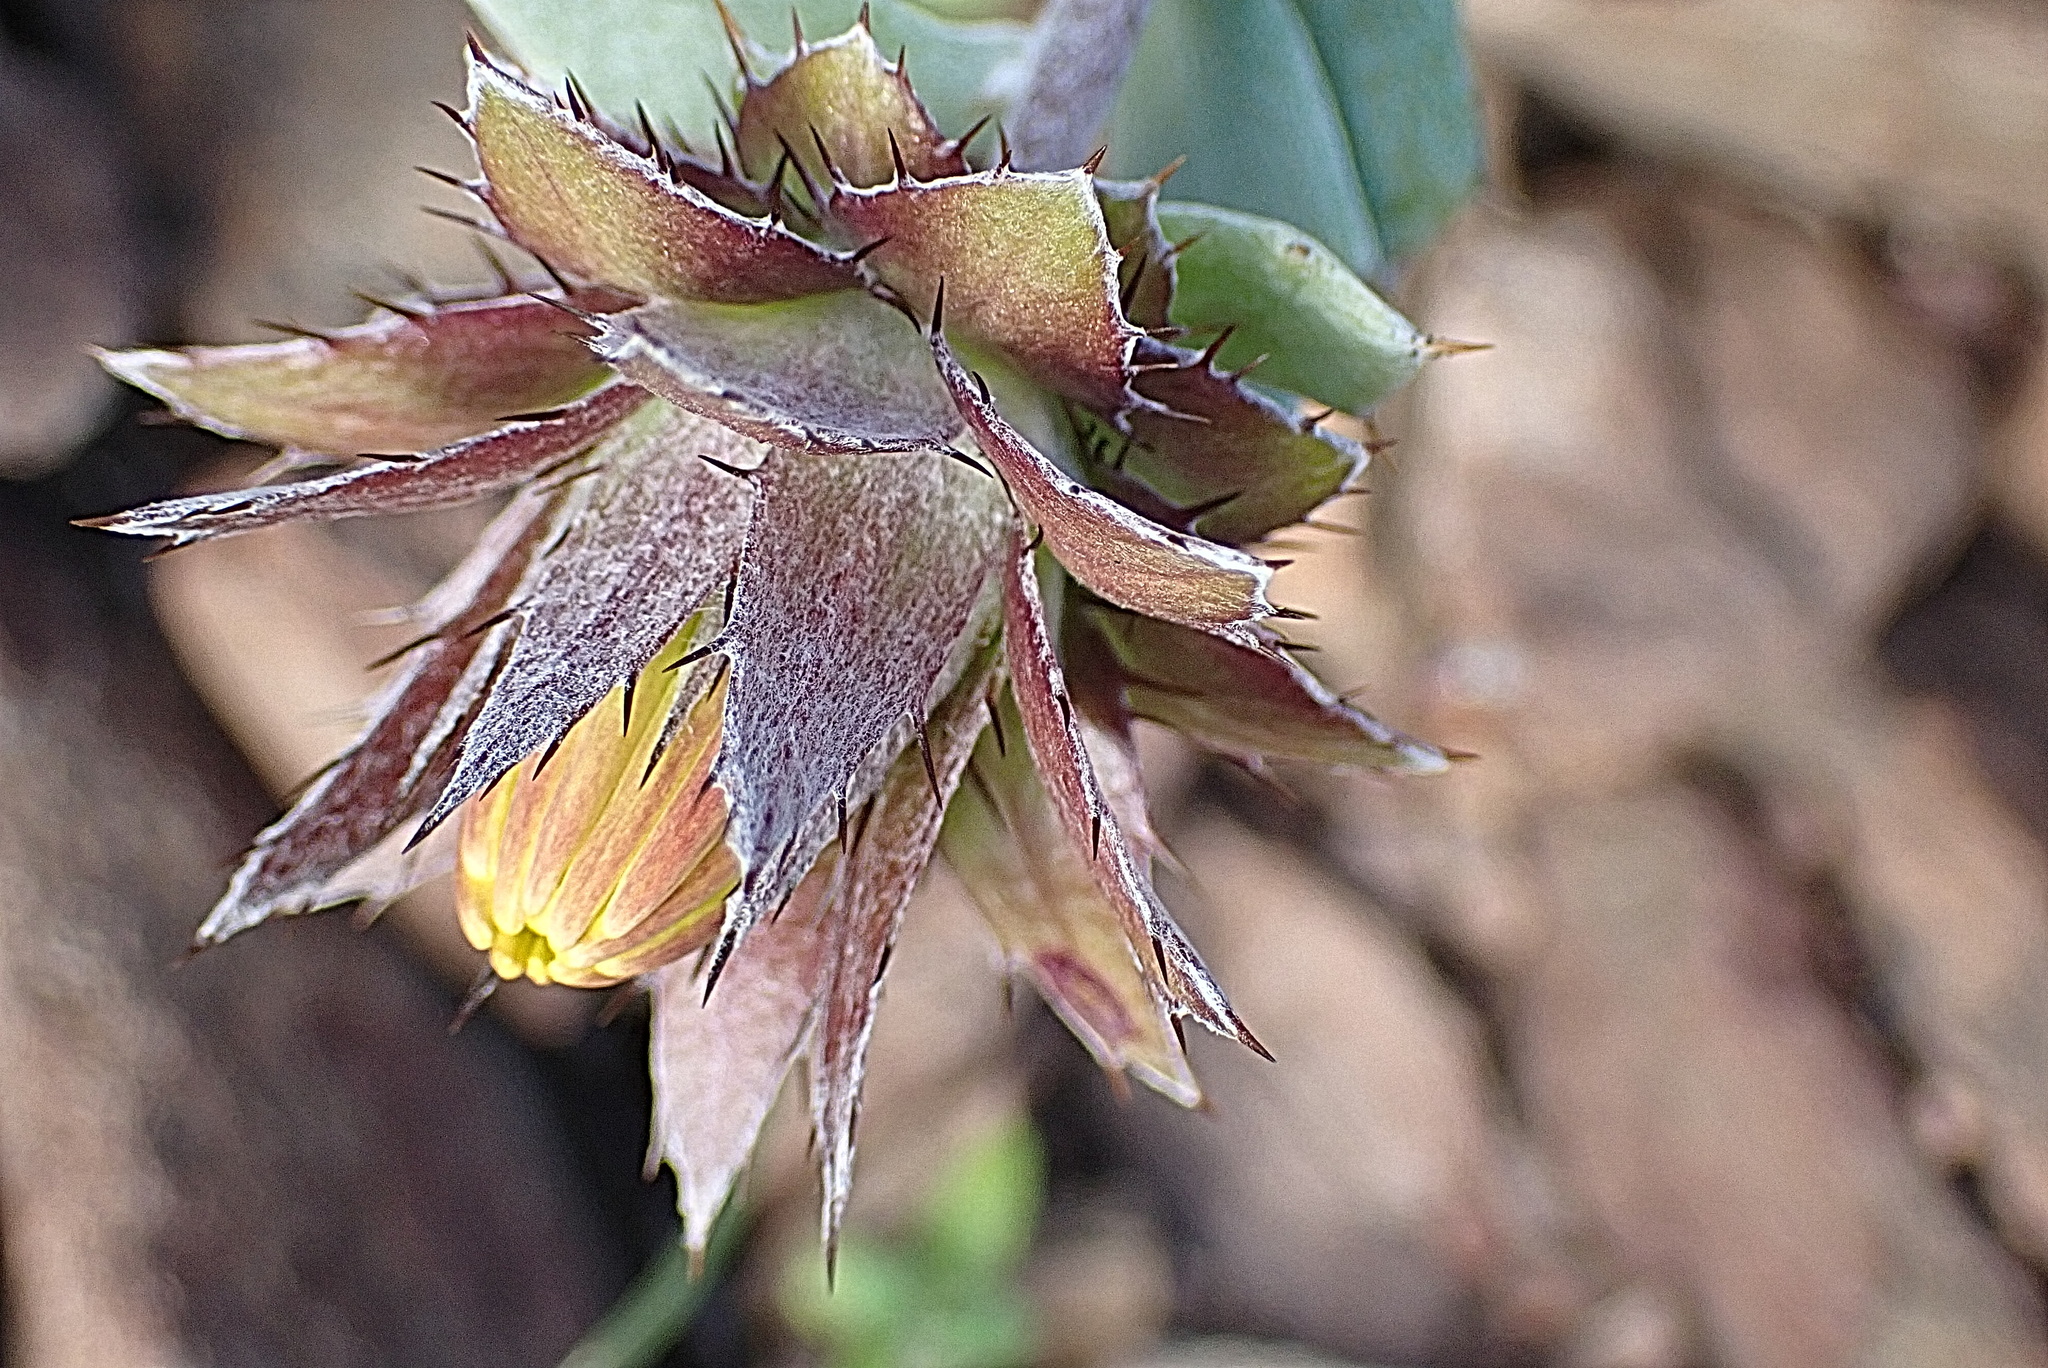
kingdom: Plantae
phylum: Tracheophyta
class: Magnoliopsida
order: Asterales
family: Asteraceae
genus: Berkheya
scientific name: Berkheya cuneata
